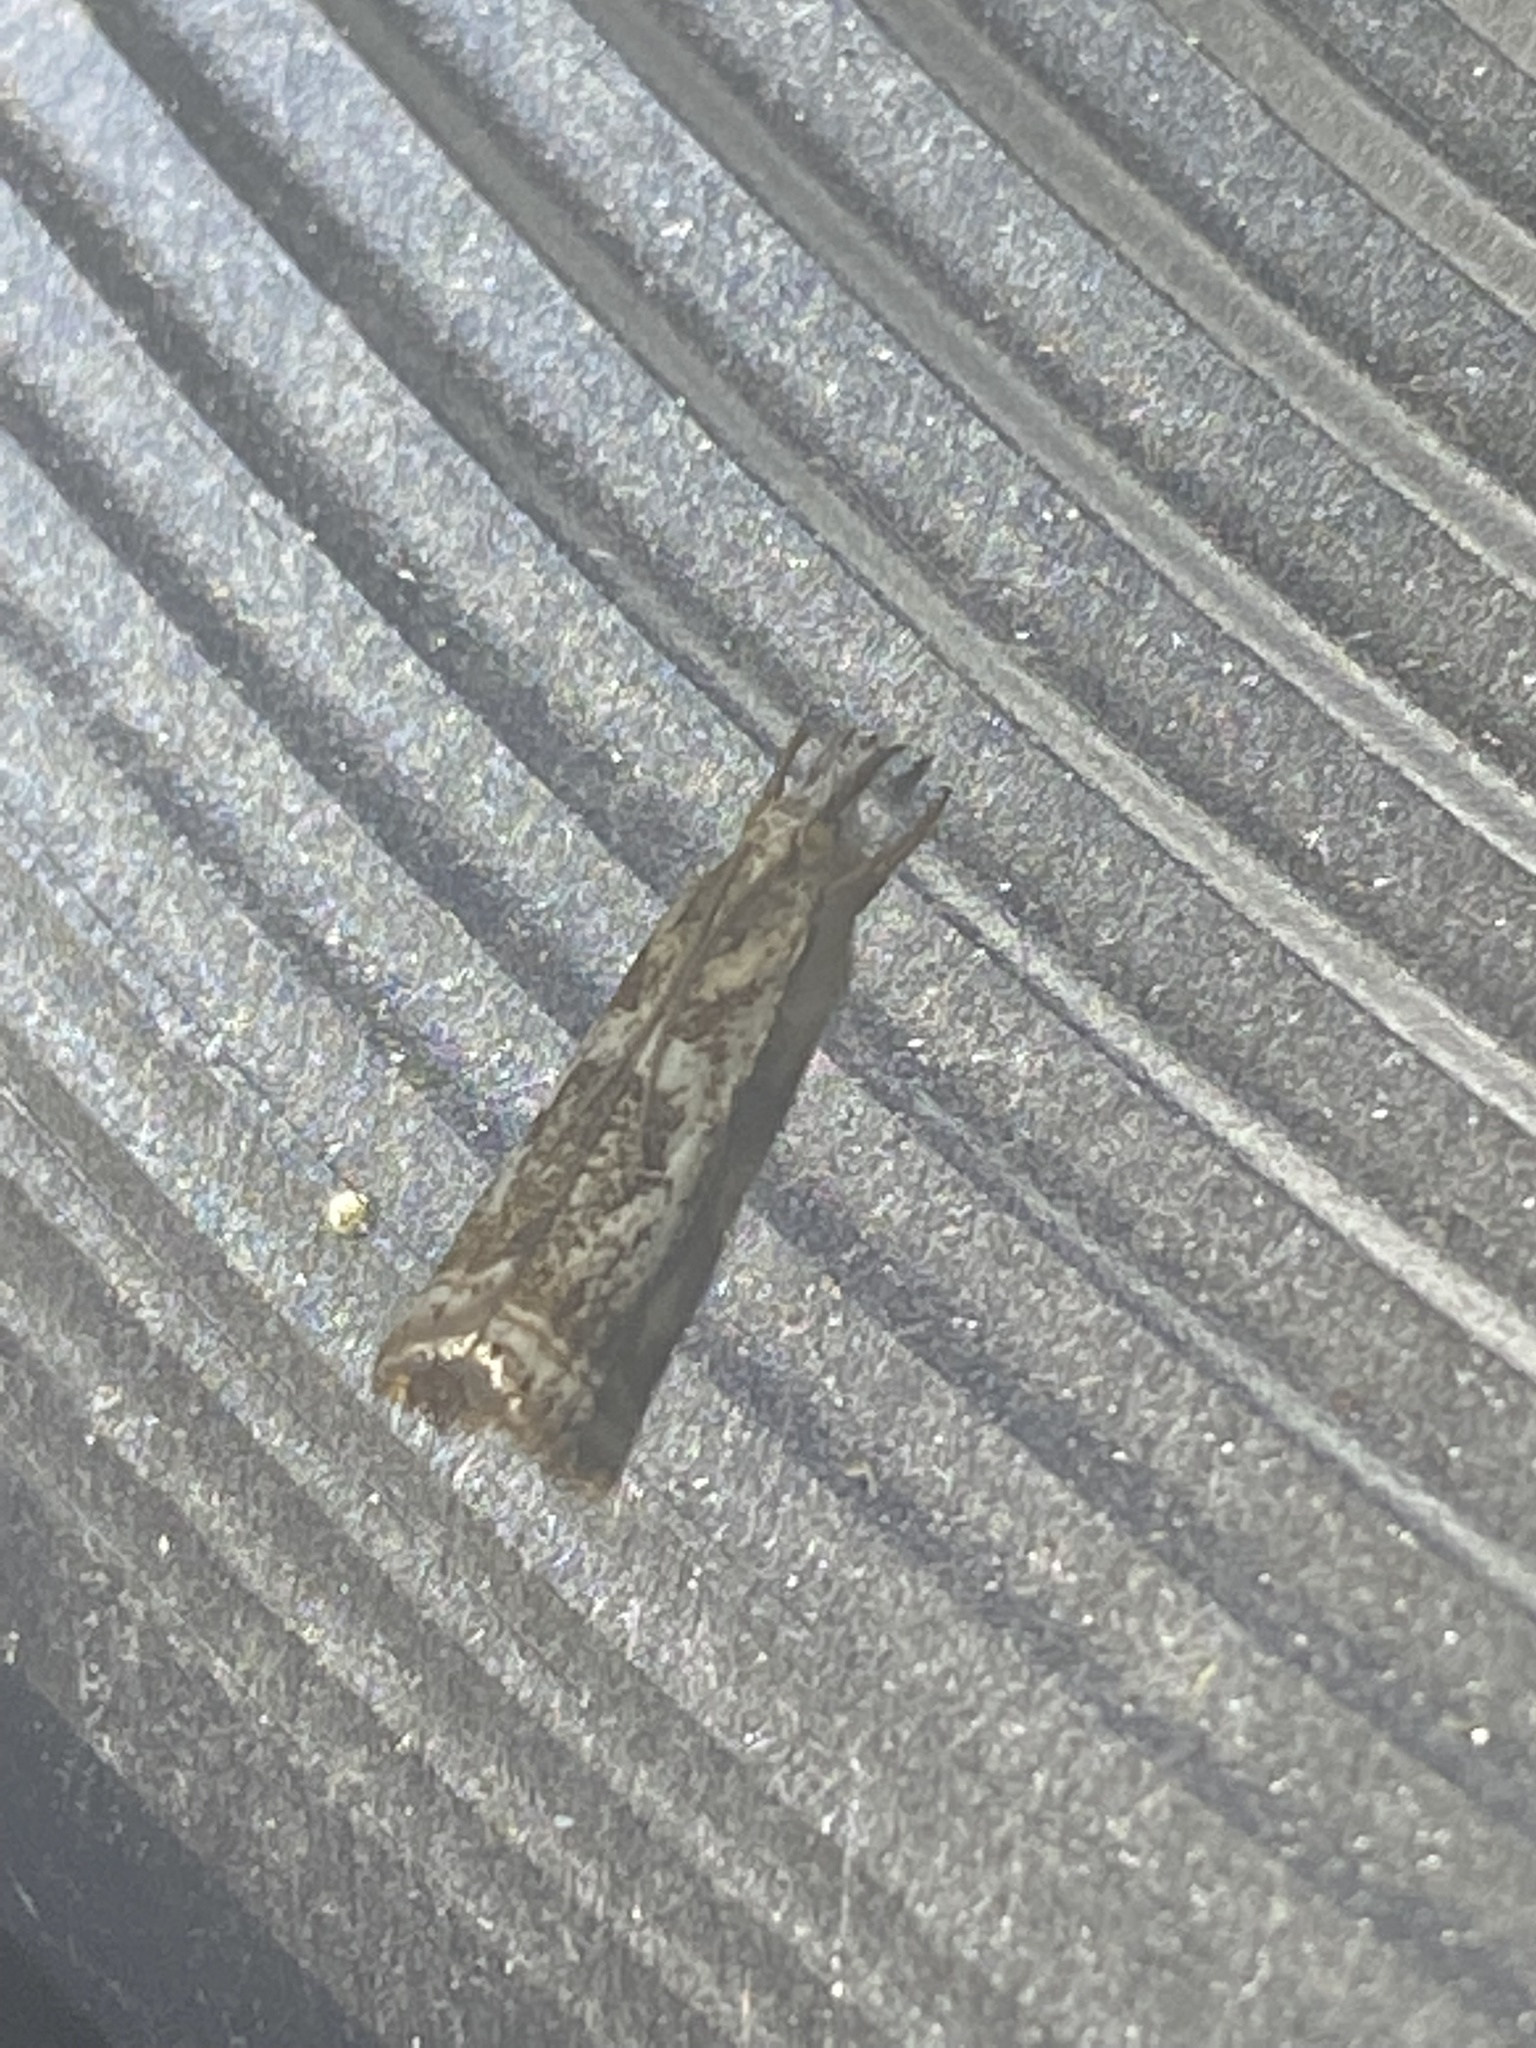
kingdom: Animalia
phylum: Arthropoda
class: Insecta
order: Lepidoptera
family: Crambidae
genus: Microcrambus
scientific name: Microcrambus elegans
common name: Elegant grass-veneer
